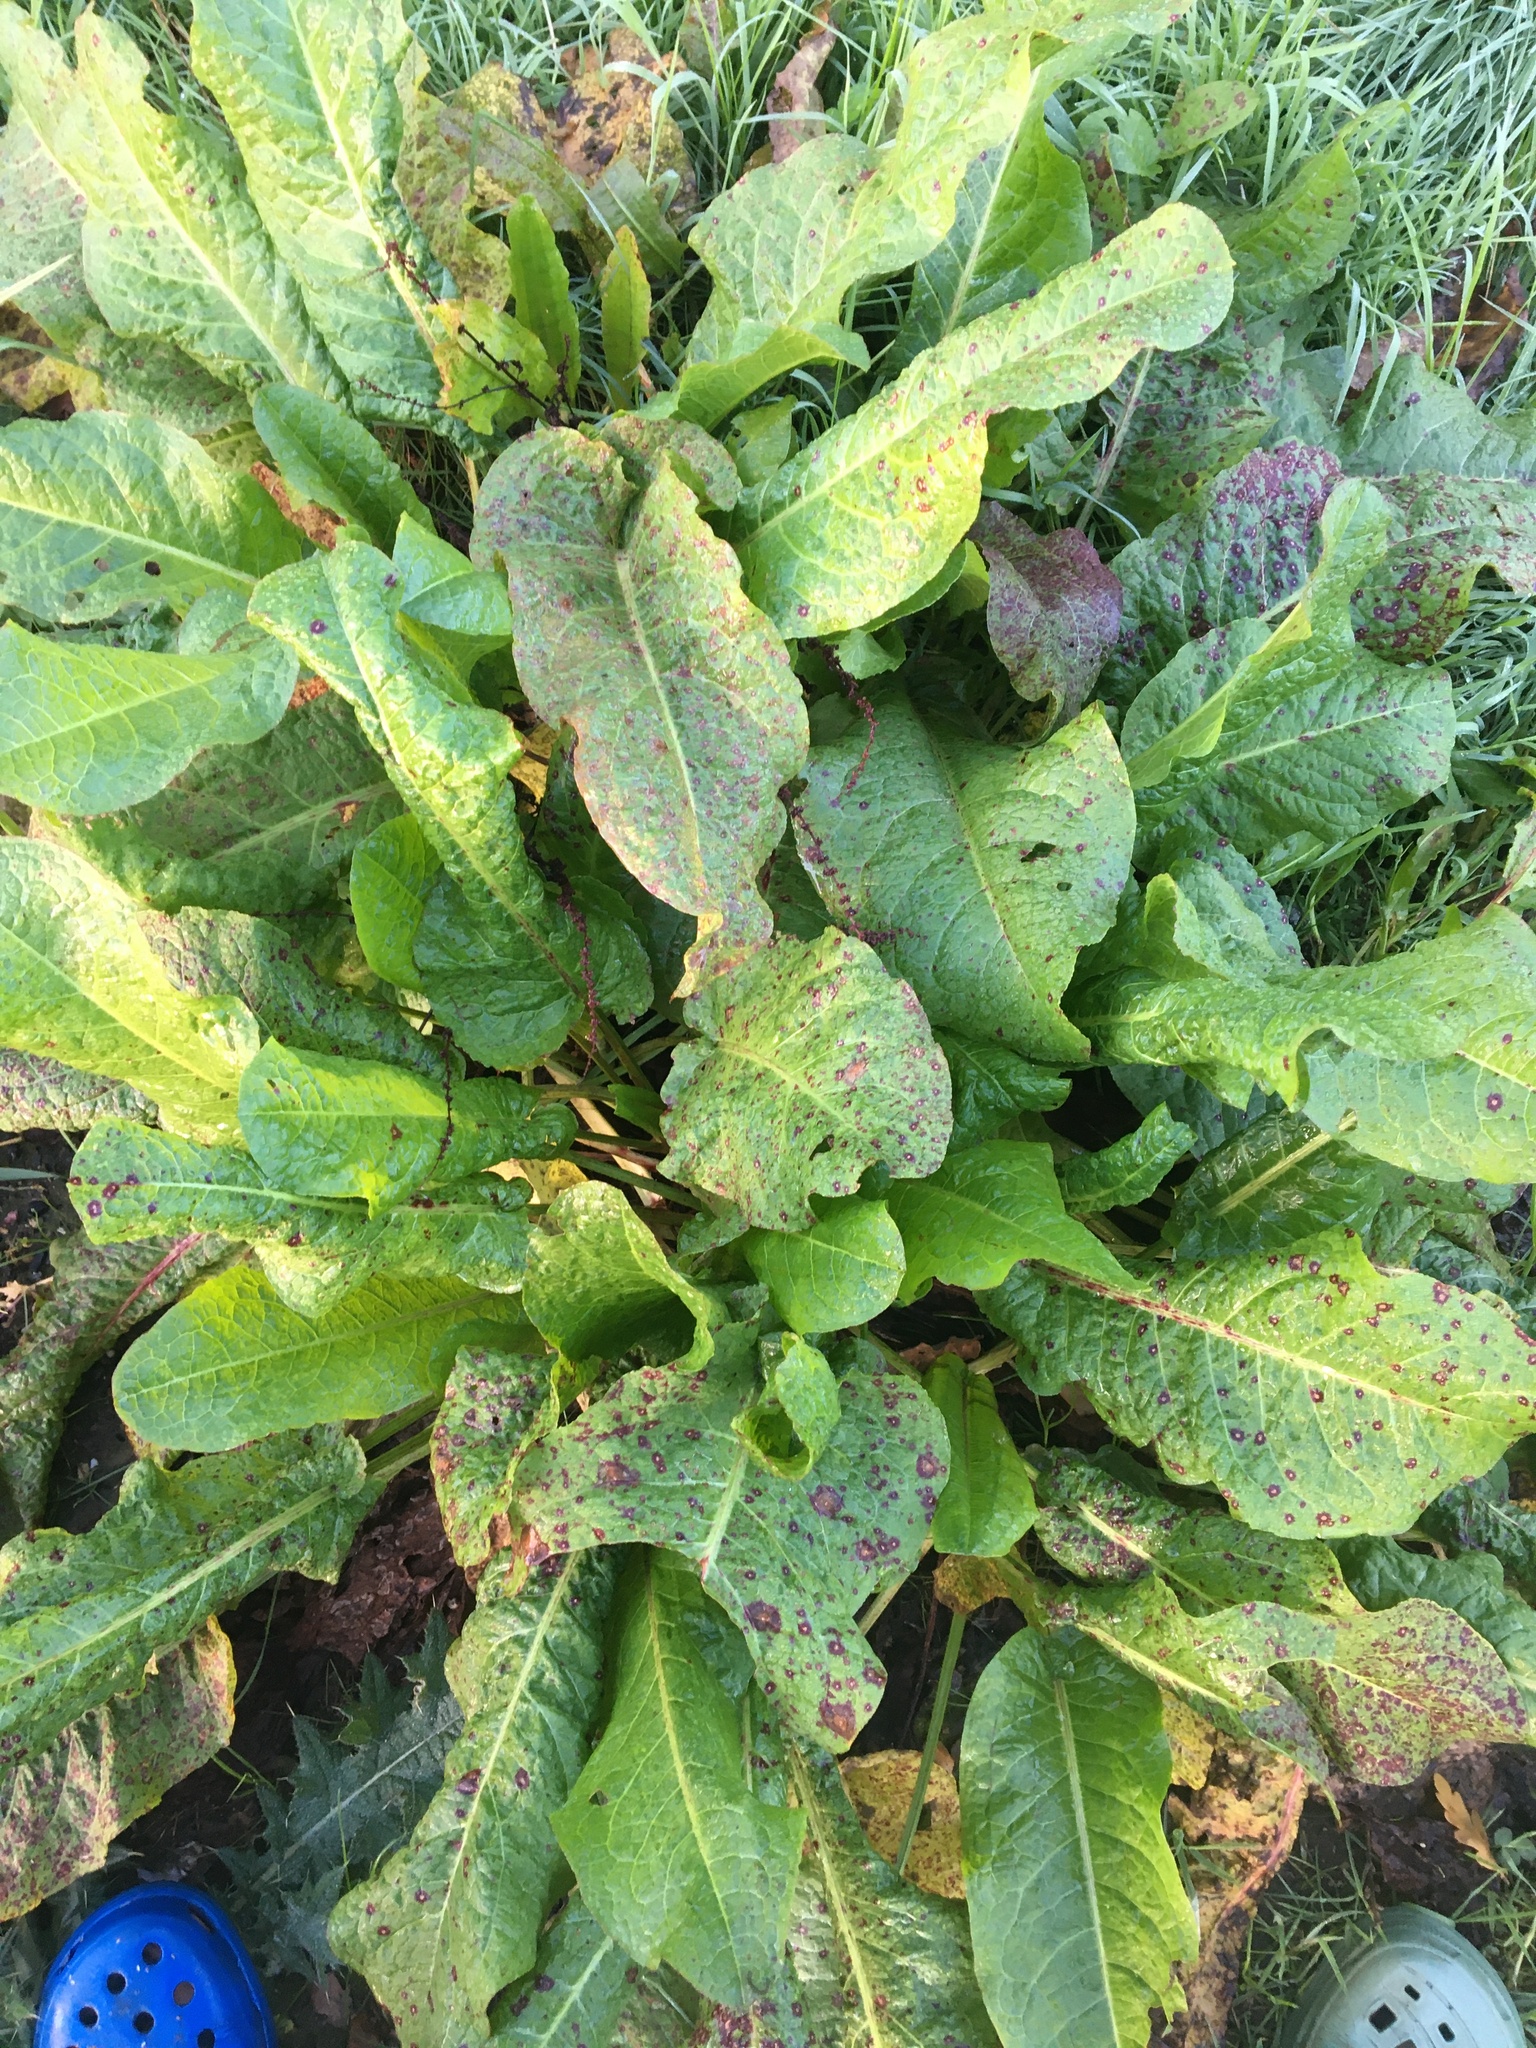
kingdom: Plantae
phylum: Tracheophyta
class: Magnoliopsida
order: Caryophyllales
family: Polygonaceae
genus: Rumex
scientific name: Rumex obtusifolius
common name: Bitter dock
